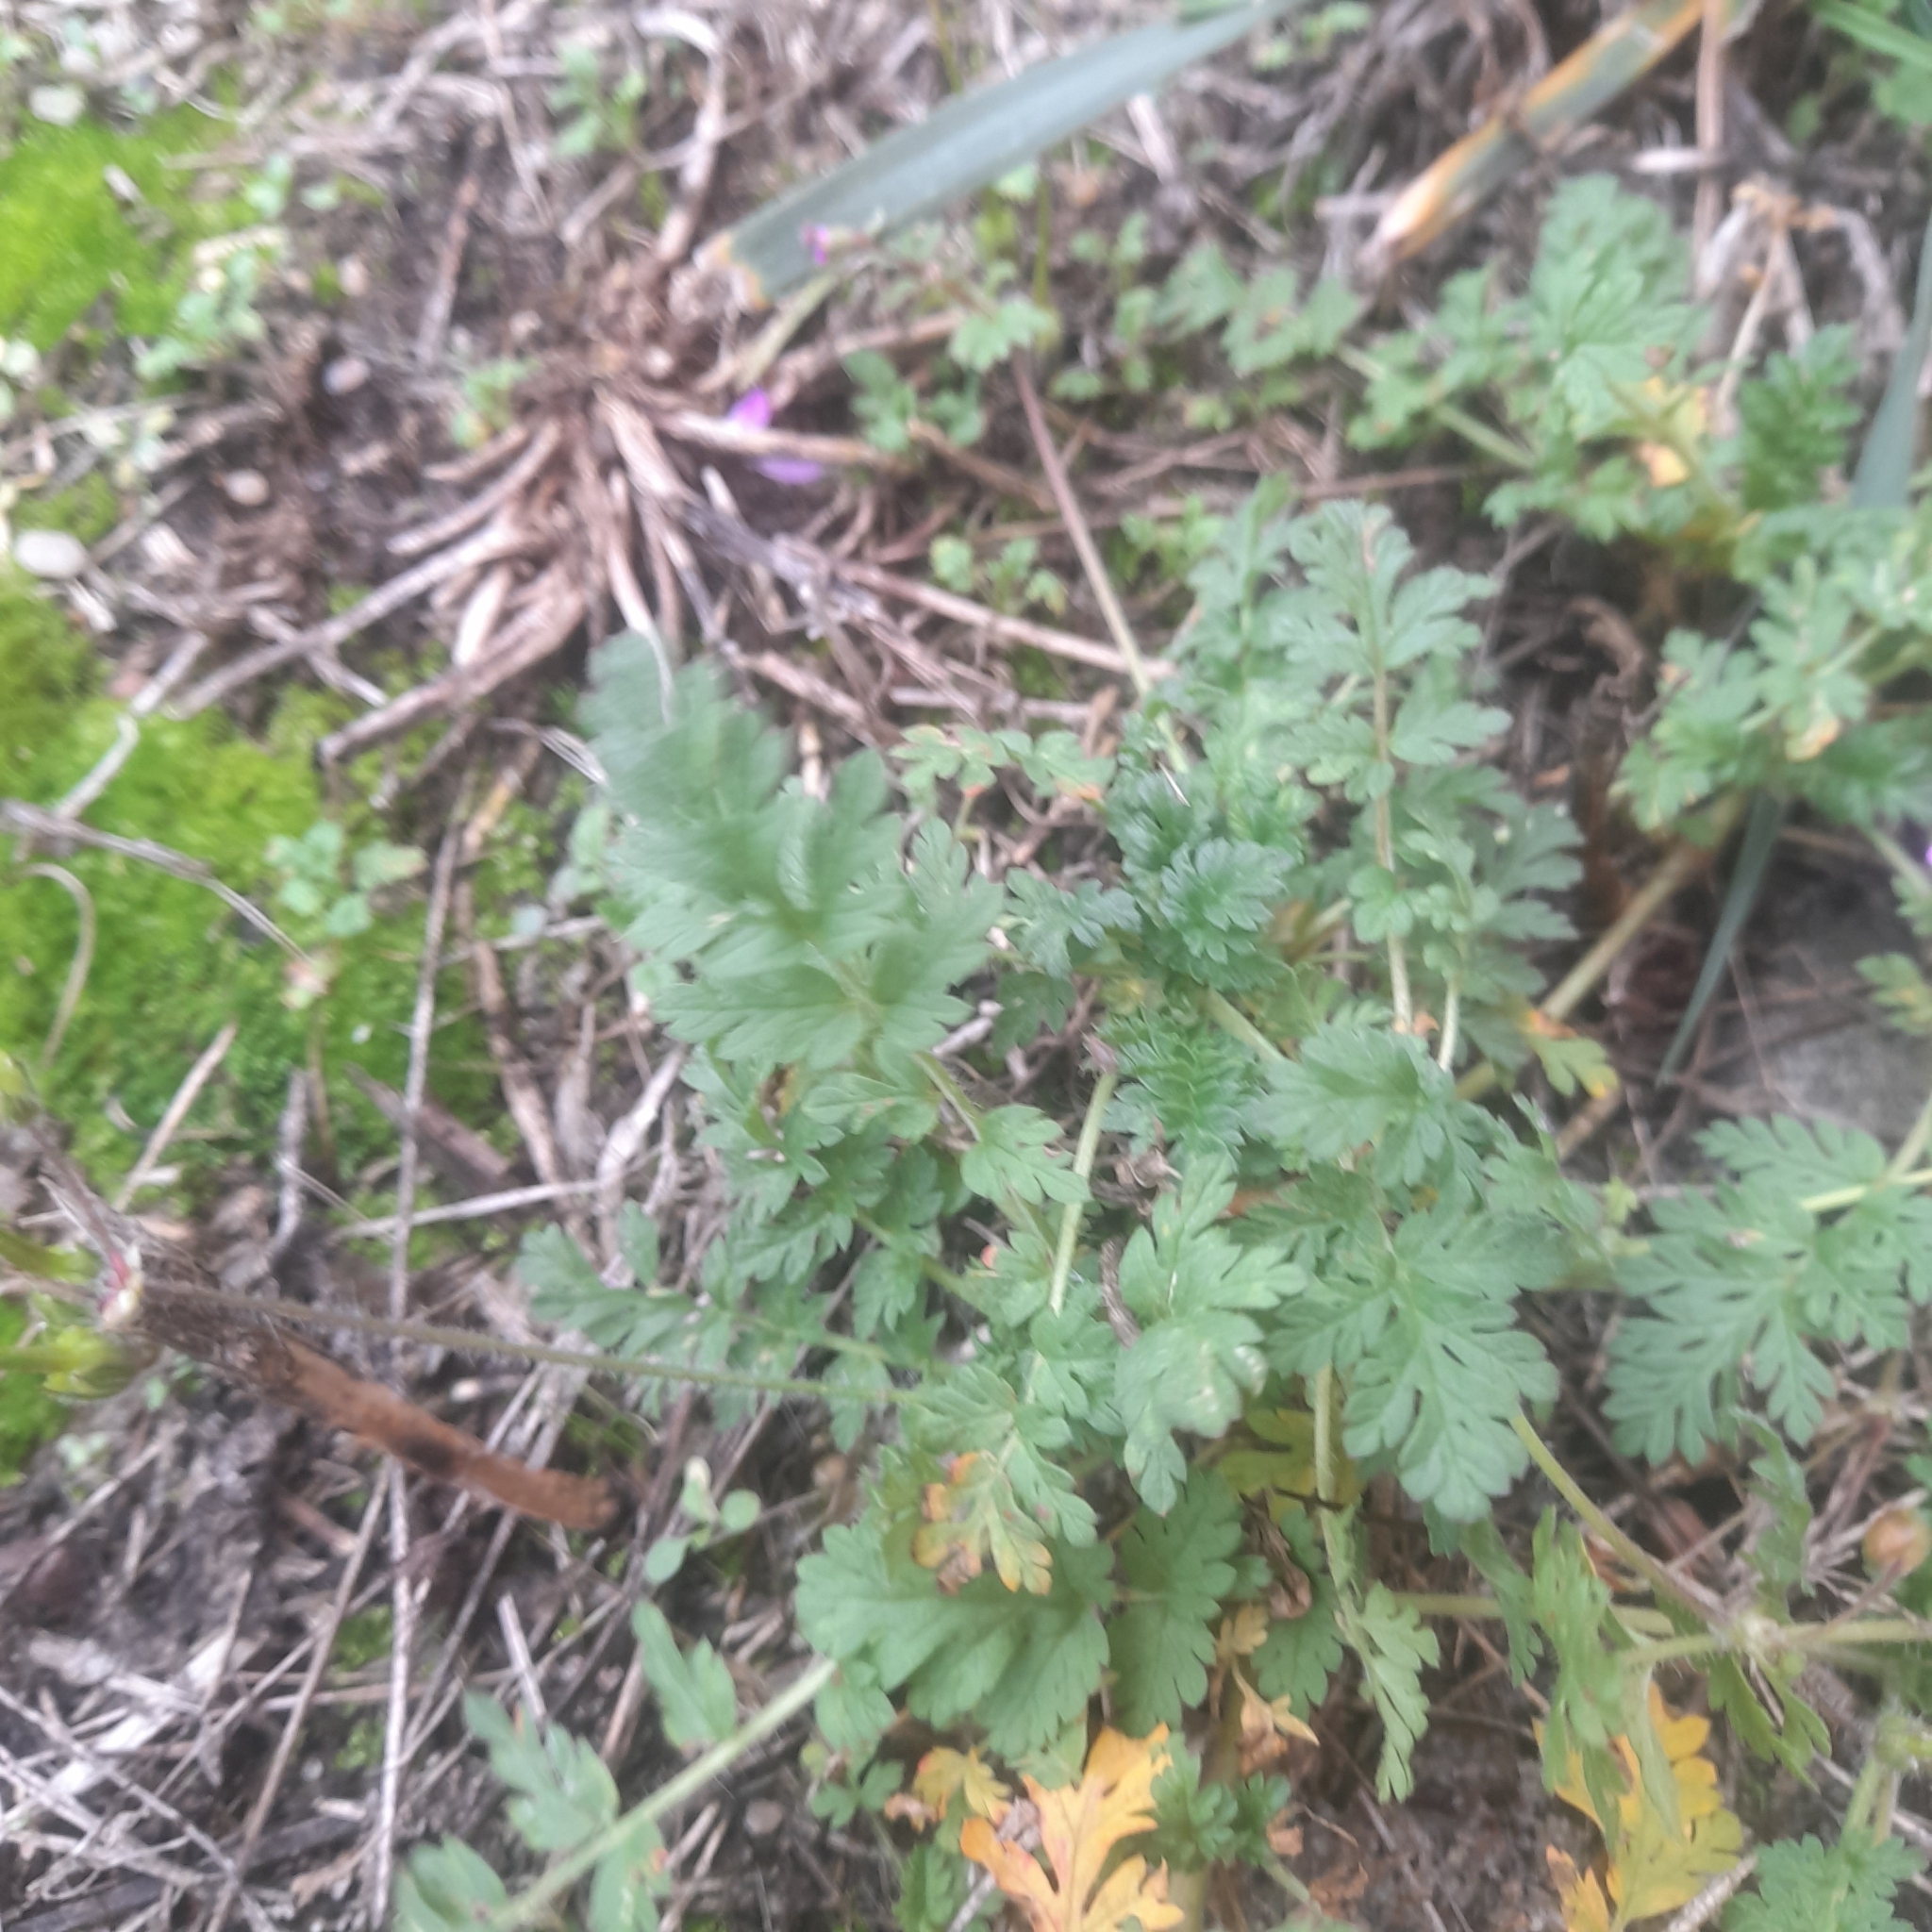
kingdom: Plantae
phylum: Tracheophyta
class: Magnoliopsida
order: Geraniales
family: Geraniaceae
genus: Erodium
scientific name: Erodium cicutarium
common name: Common stork's-bill
